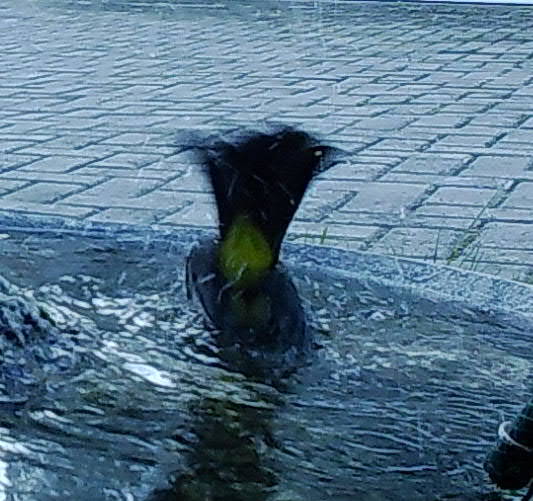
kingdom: Animalia
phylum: Chordata
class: Aves
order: Passeriformes
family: Pycnonotidae
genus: Pycnonotus
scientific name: Pycnonotus barbatus
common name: Common bulbul
